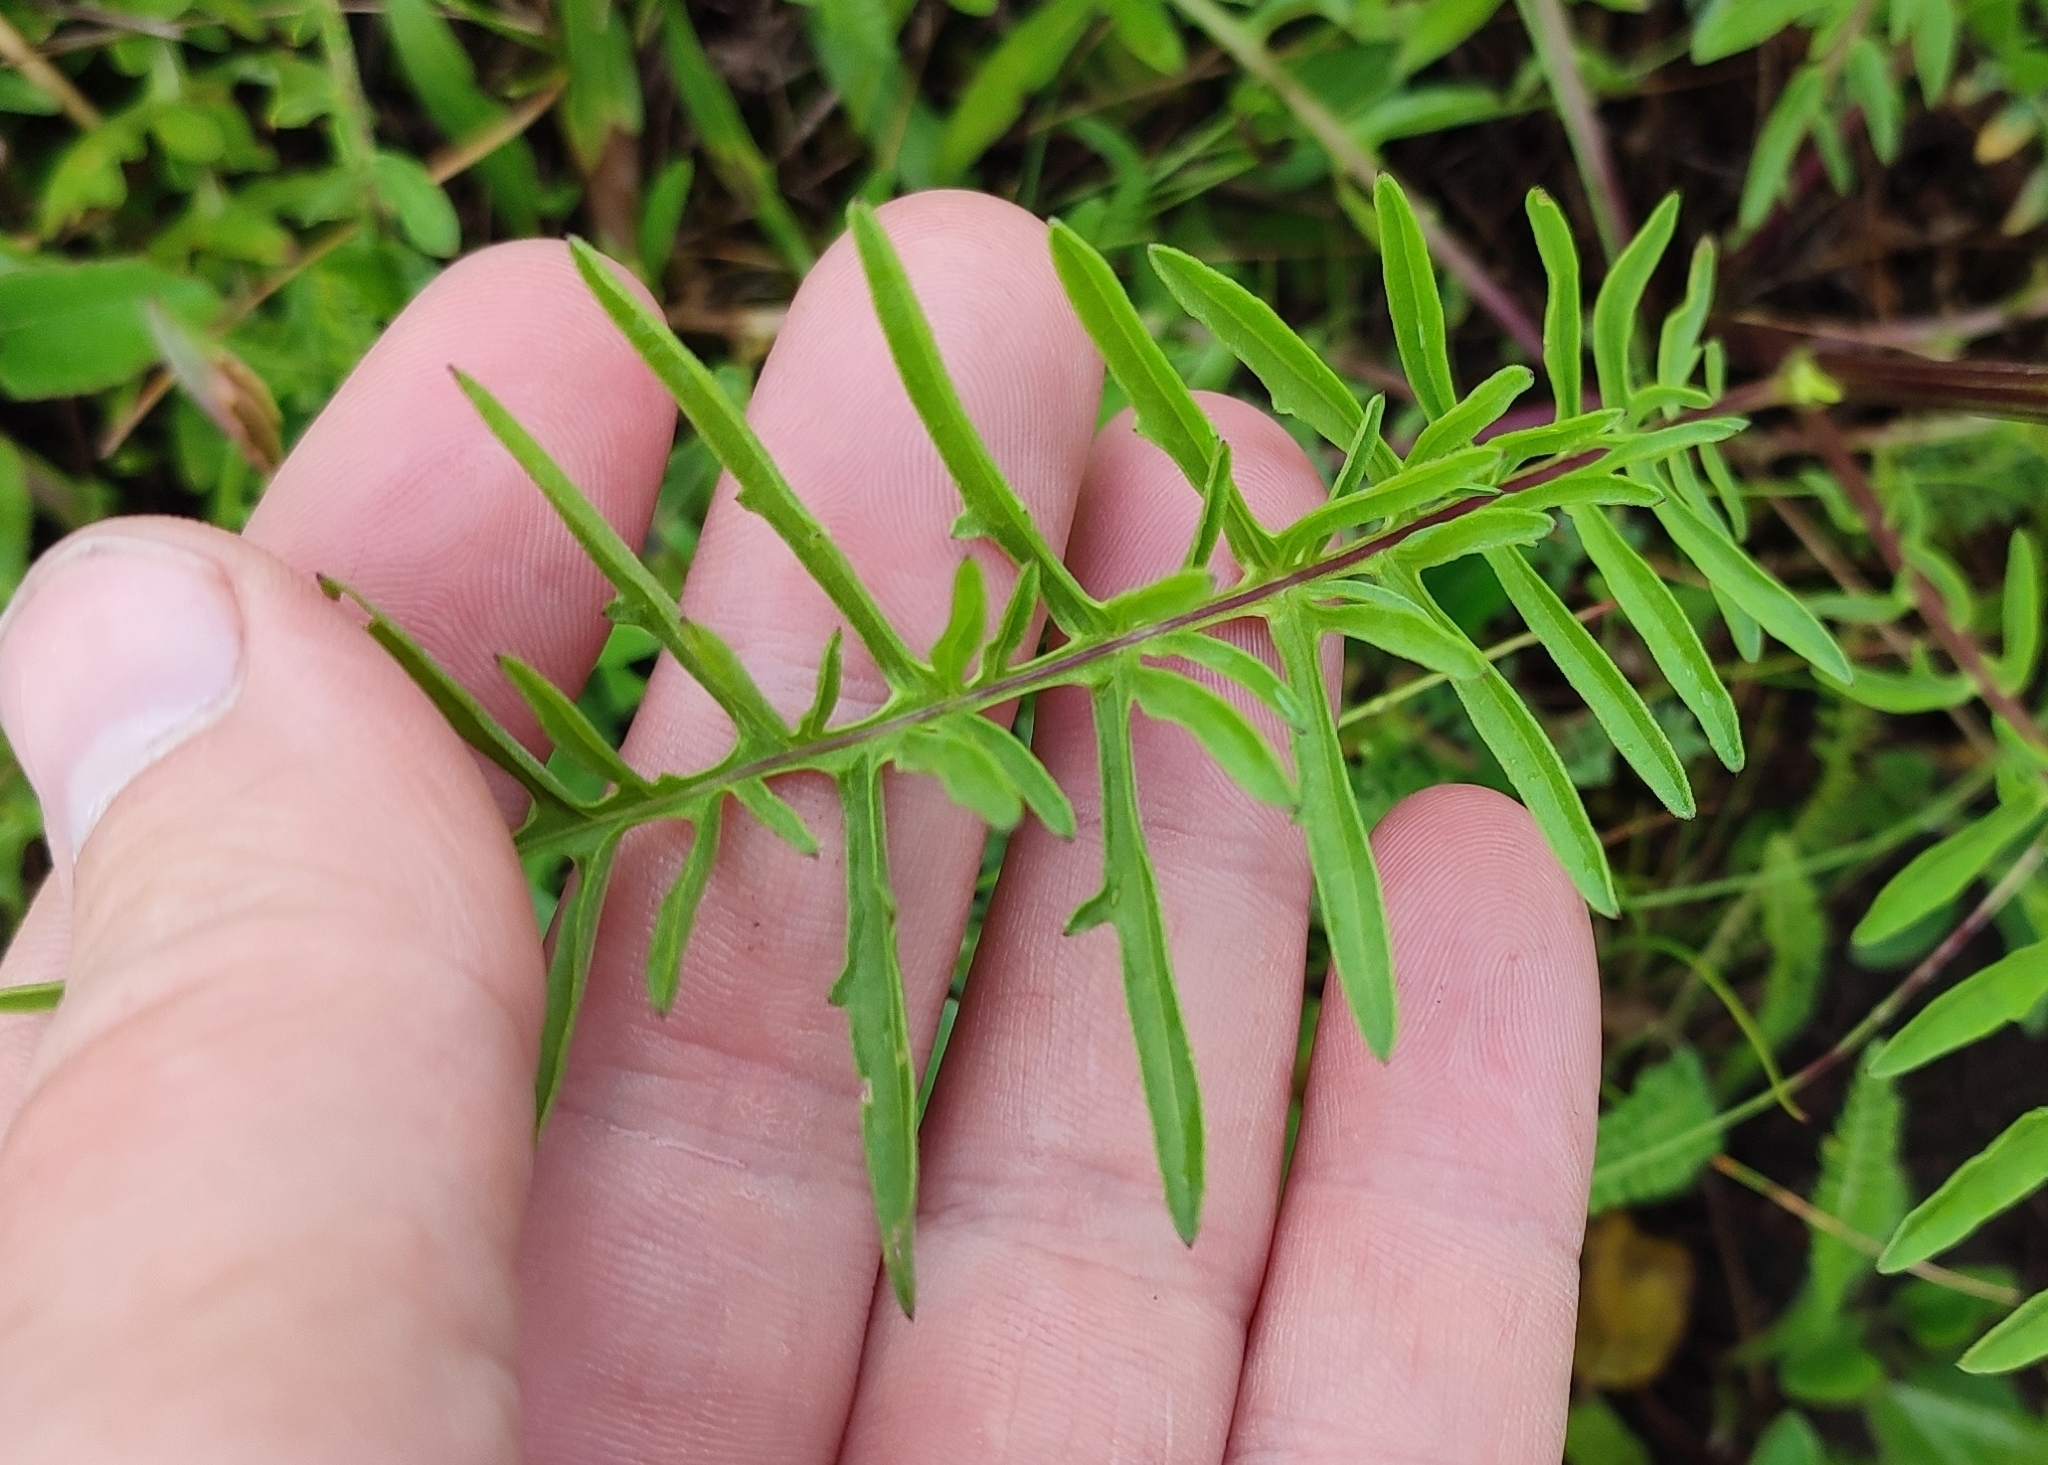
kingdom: Plantae
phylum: Tracheophyta
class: Magnoliopsida
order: Asterales
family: Asteraceae
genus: Centaurea
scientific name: Centaurea scabiosa
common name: Greater knapweed
